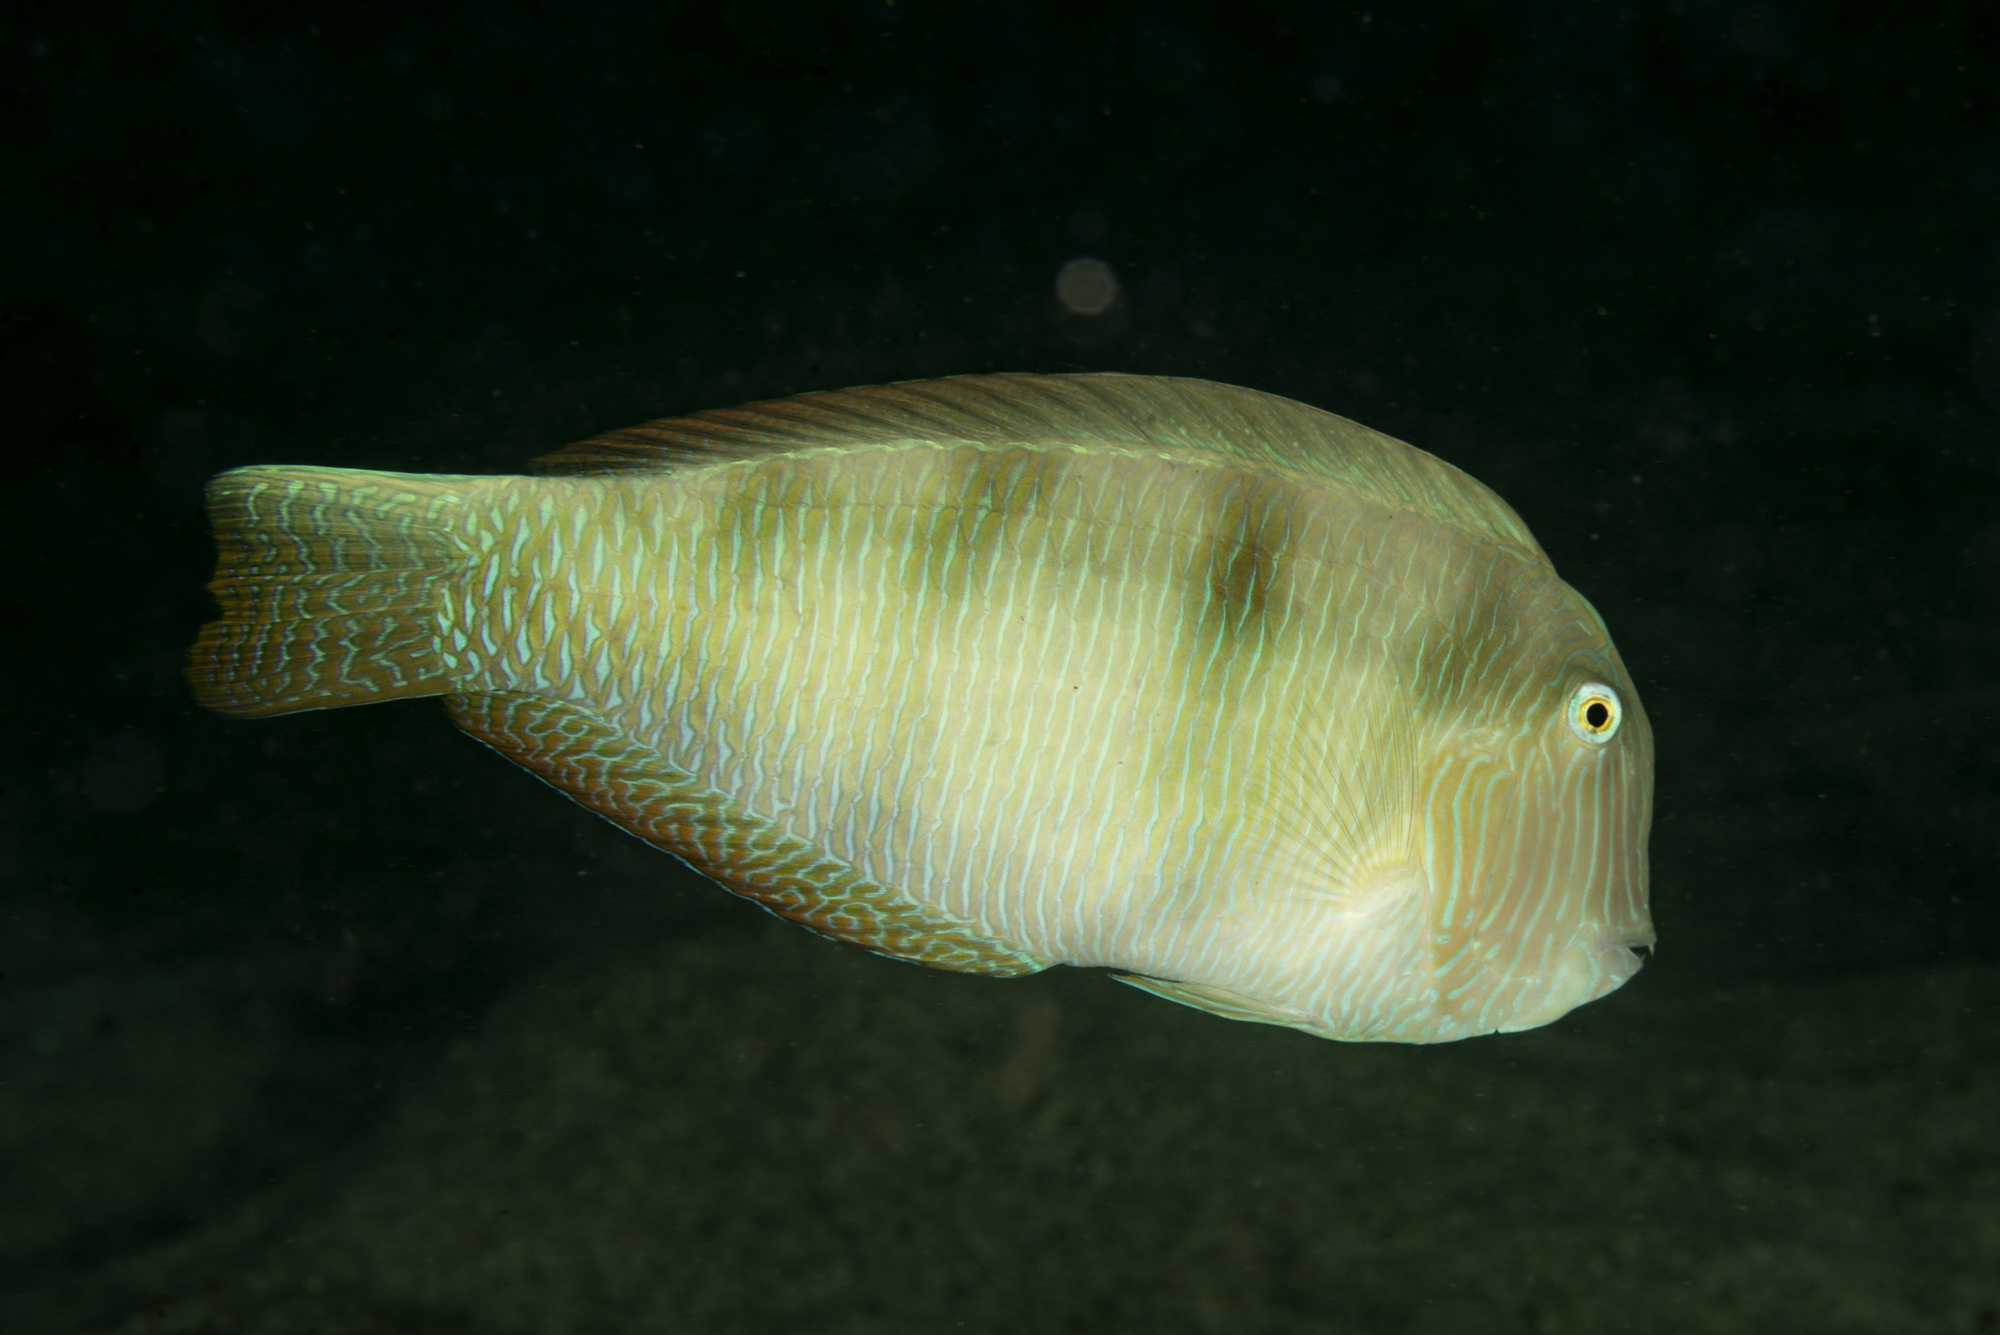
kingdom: Animalia
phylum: Chordata
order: Perciformes
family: Labridae
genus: Xyrichtys
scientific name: Xyrichtys novacula
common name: Pearly razorfish
